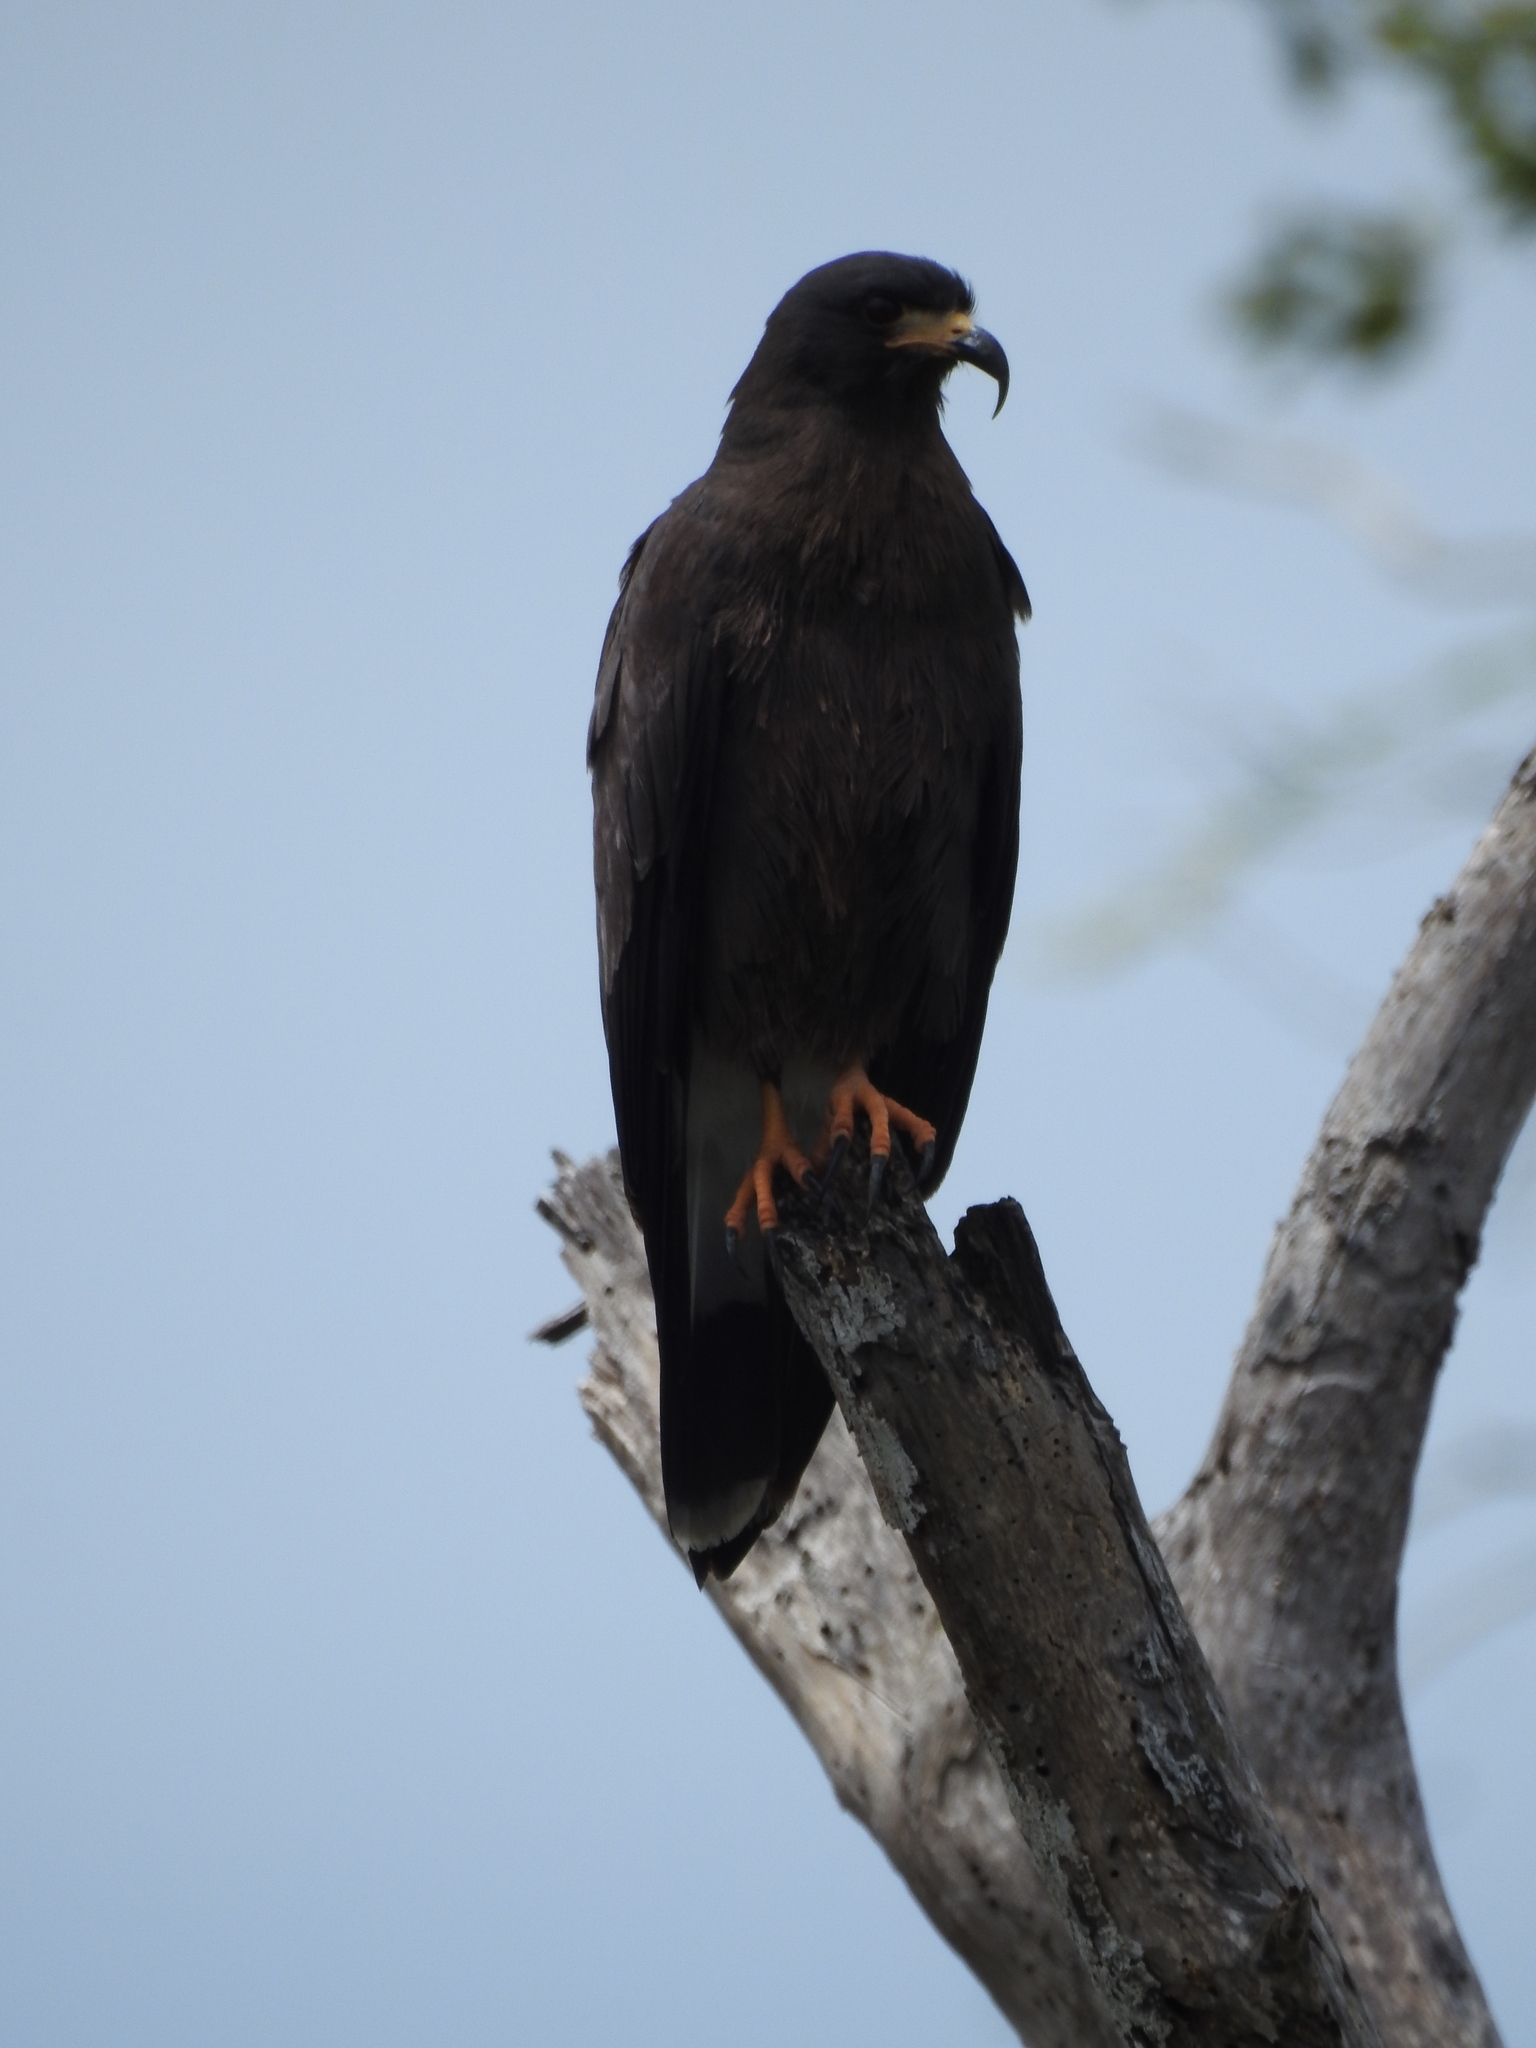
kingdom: Animalia
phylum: Chordata
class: Aves
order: Accipitriformes
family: Accipitridae
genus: Rostrhamus
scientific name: Rostrhamus sociabilis
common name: Snail kite
